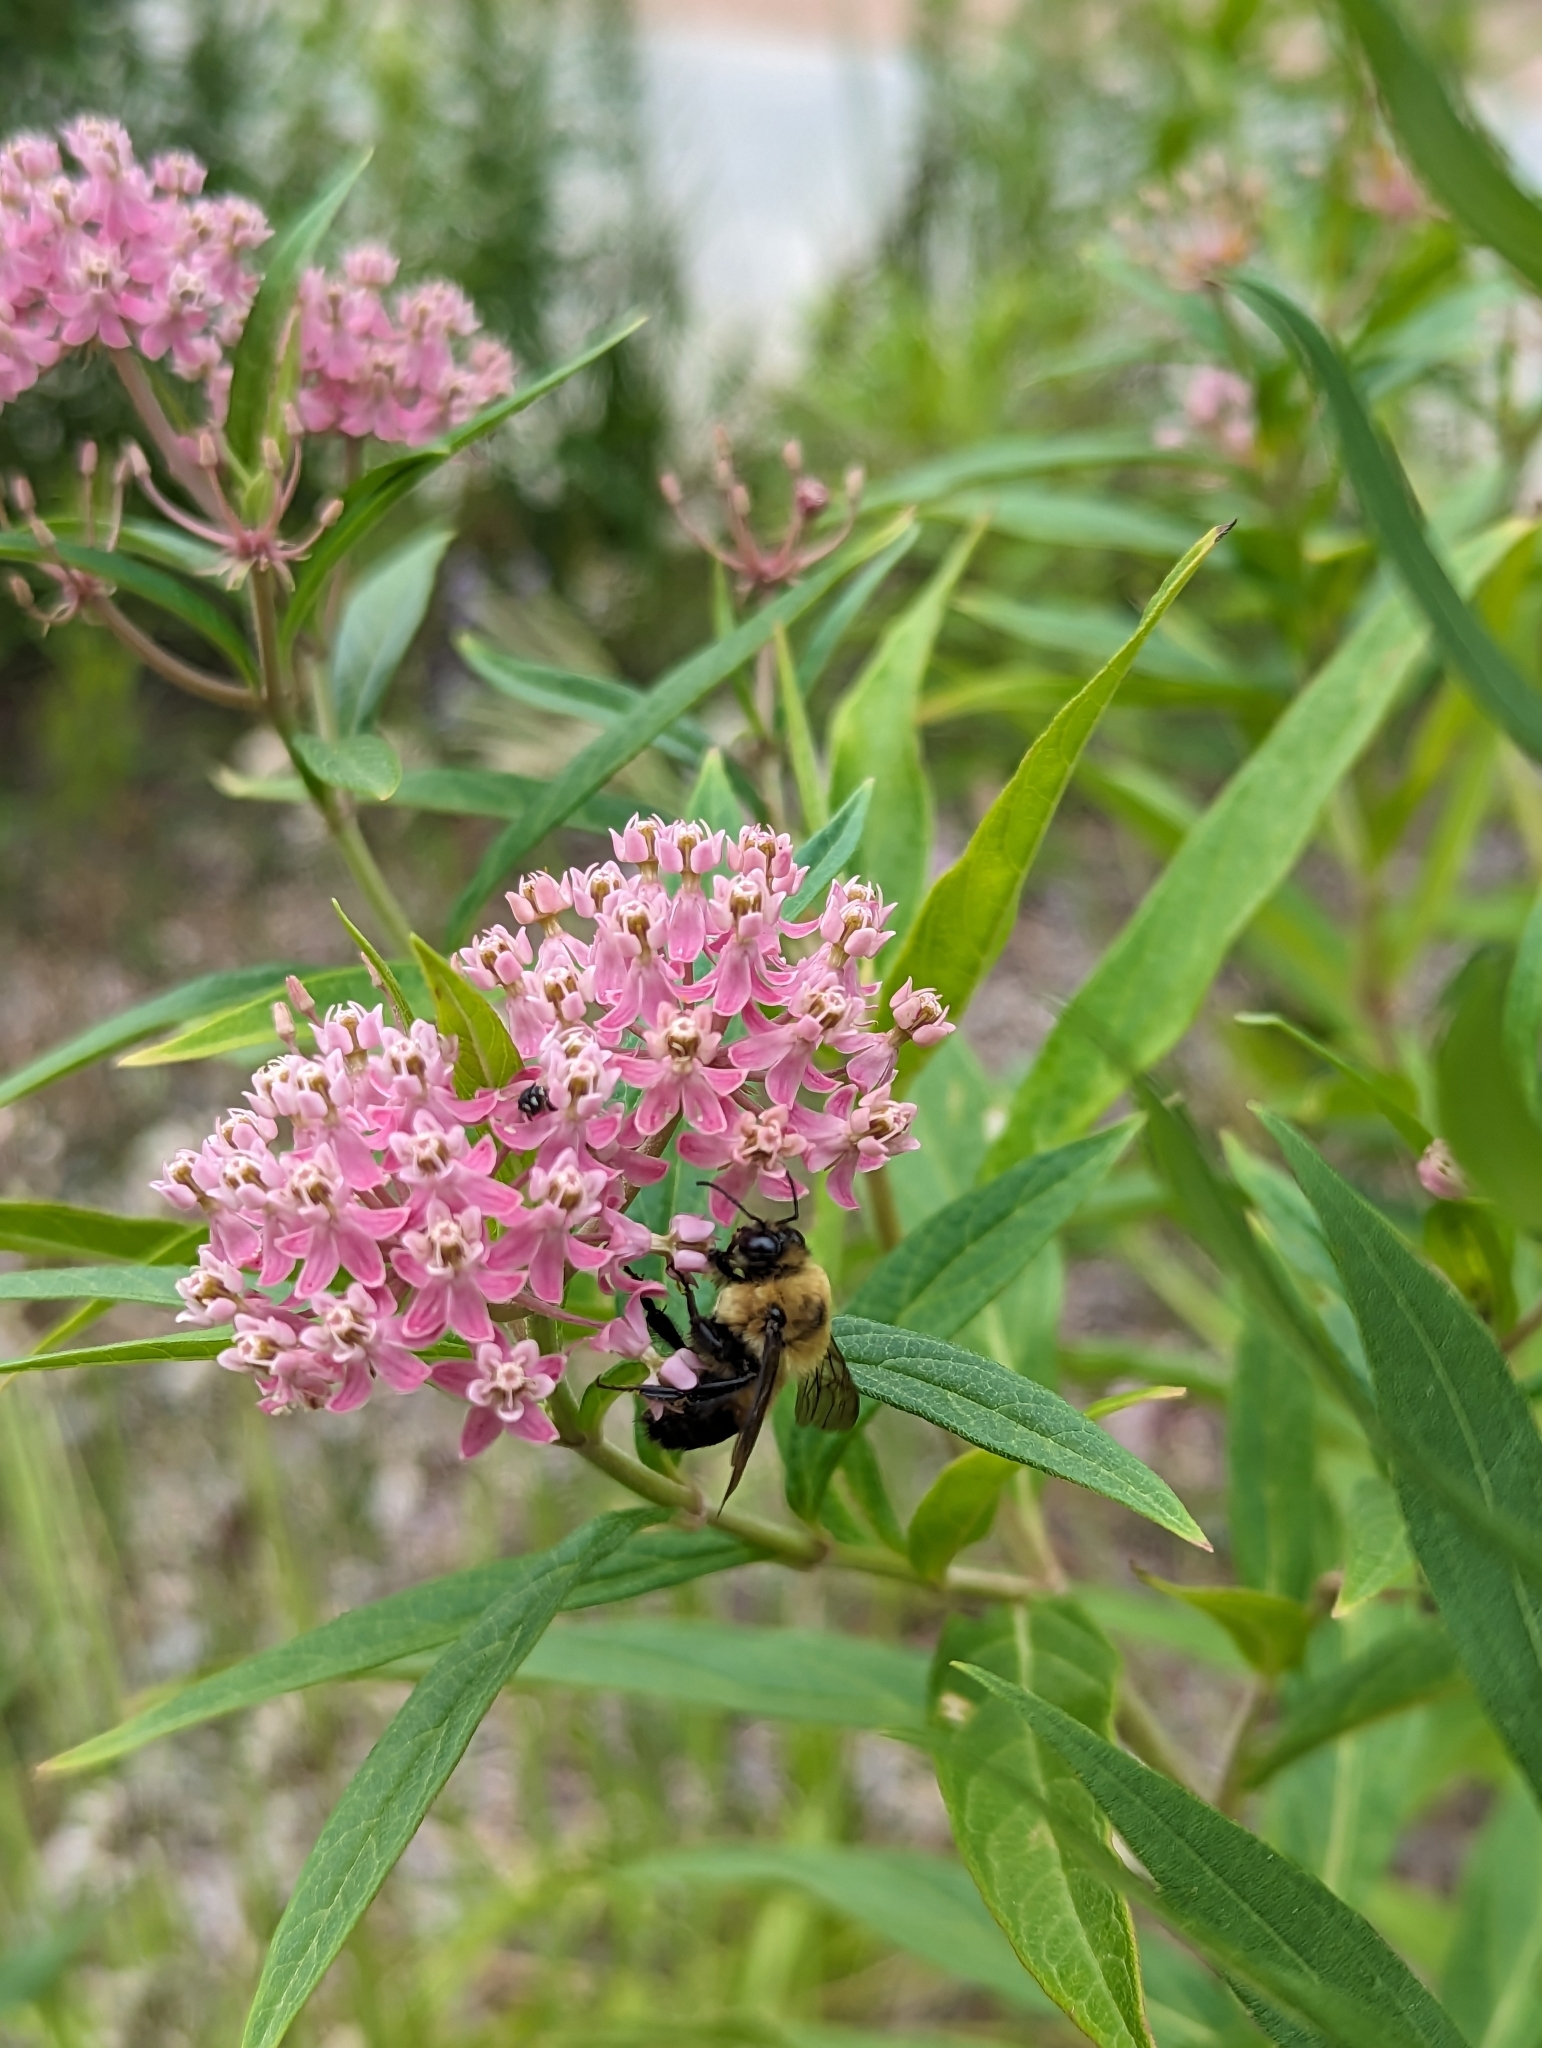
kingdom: Animalia
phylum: Arthropoda
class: Insecta
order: Hymenoptera
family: Apidae
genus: Bombus
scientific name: Bombus griseocollis
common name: Brown-belted bumble bee
